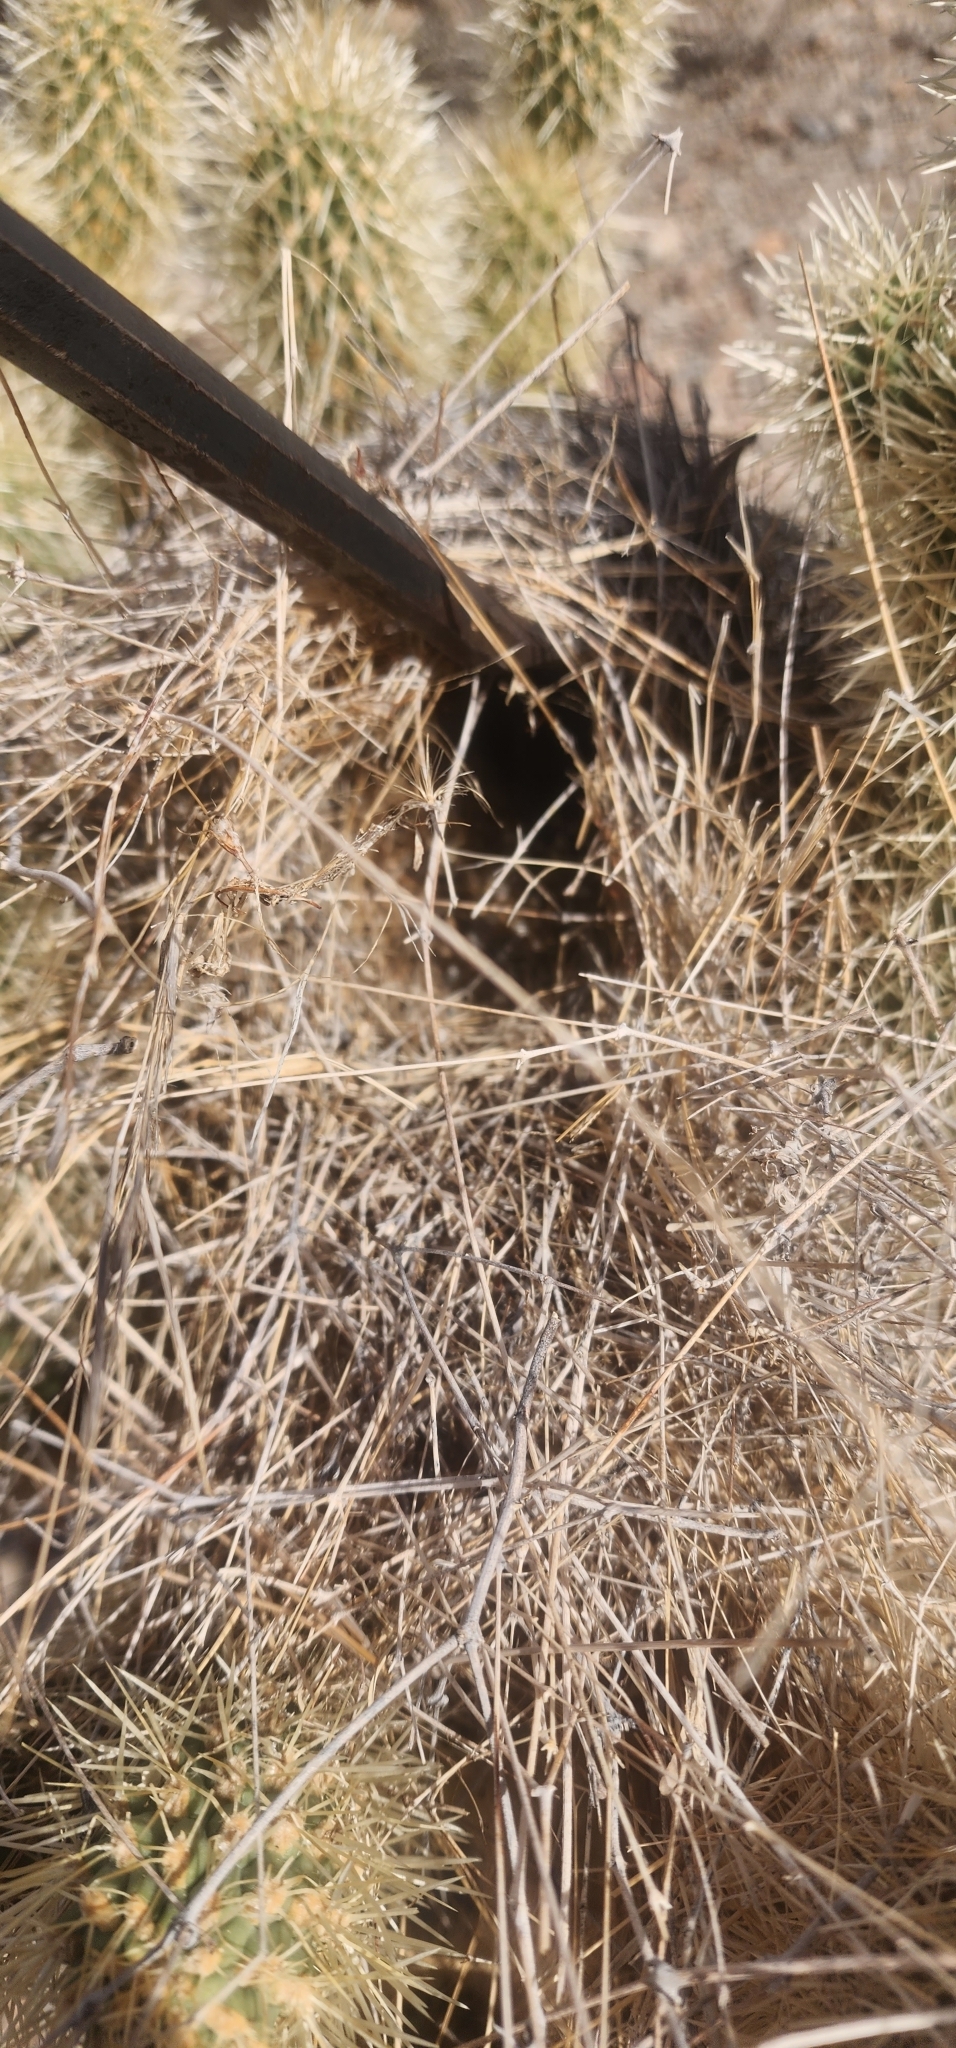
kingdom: Plantae
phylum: Tracheophyta
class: Magnoliopsida
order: Caryophyllales
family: Cactaceae
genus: Cylindropuntia
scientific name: Cylindropuntia fosbergii
